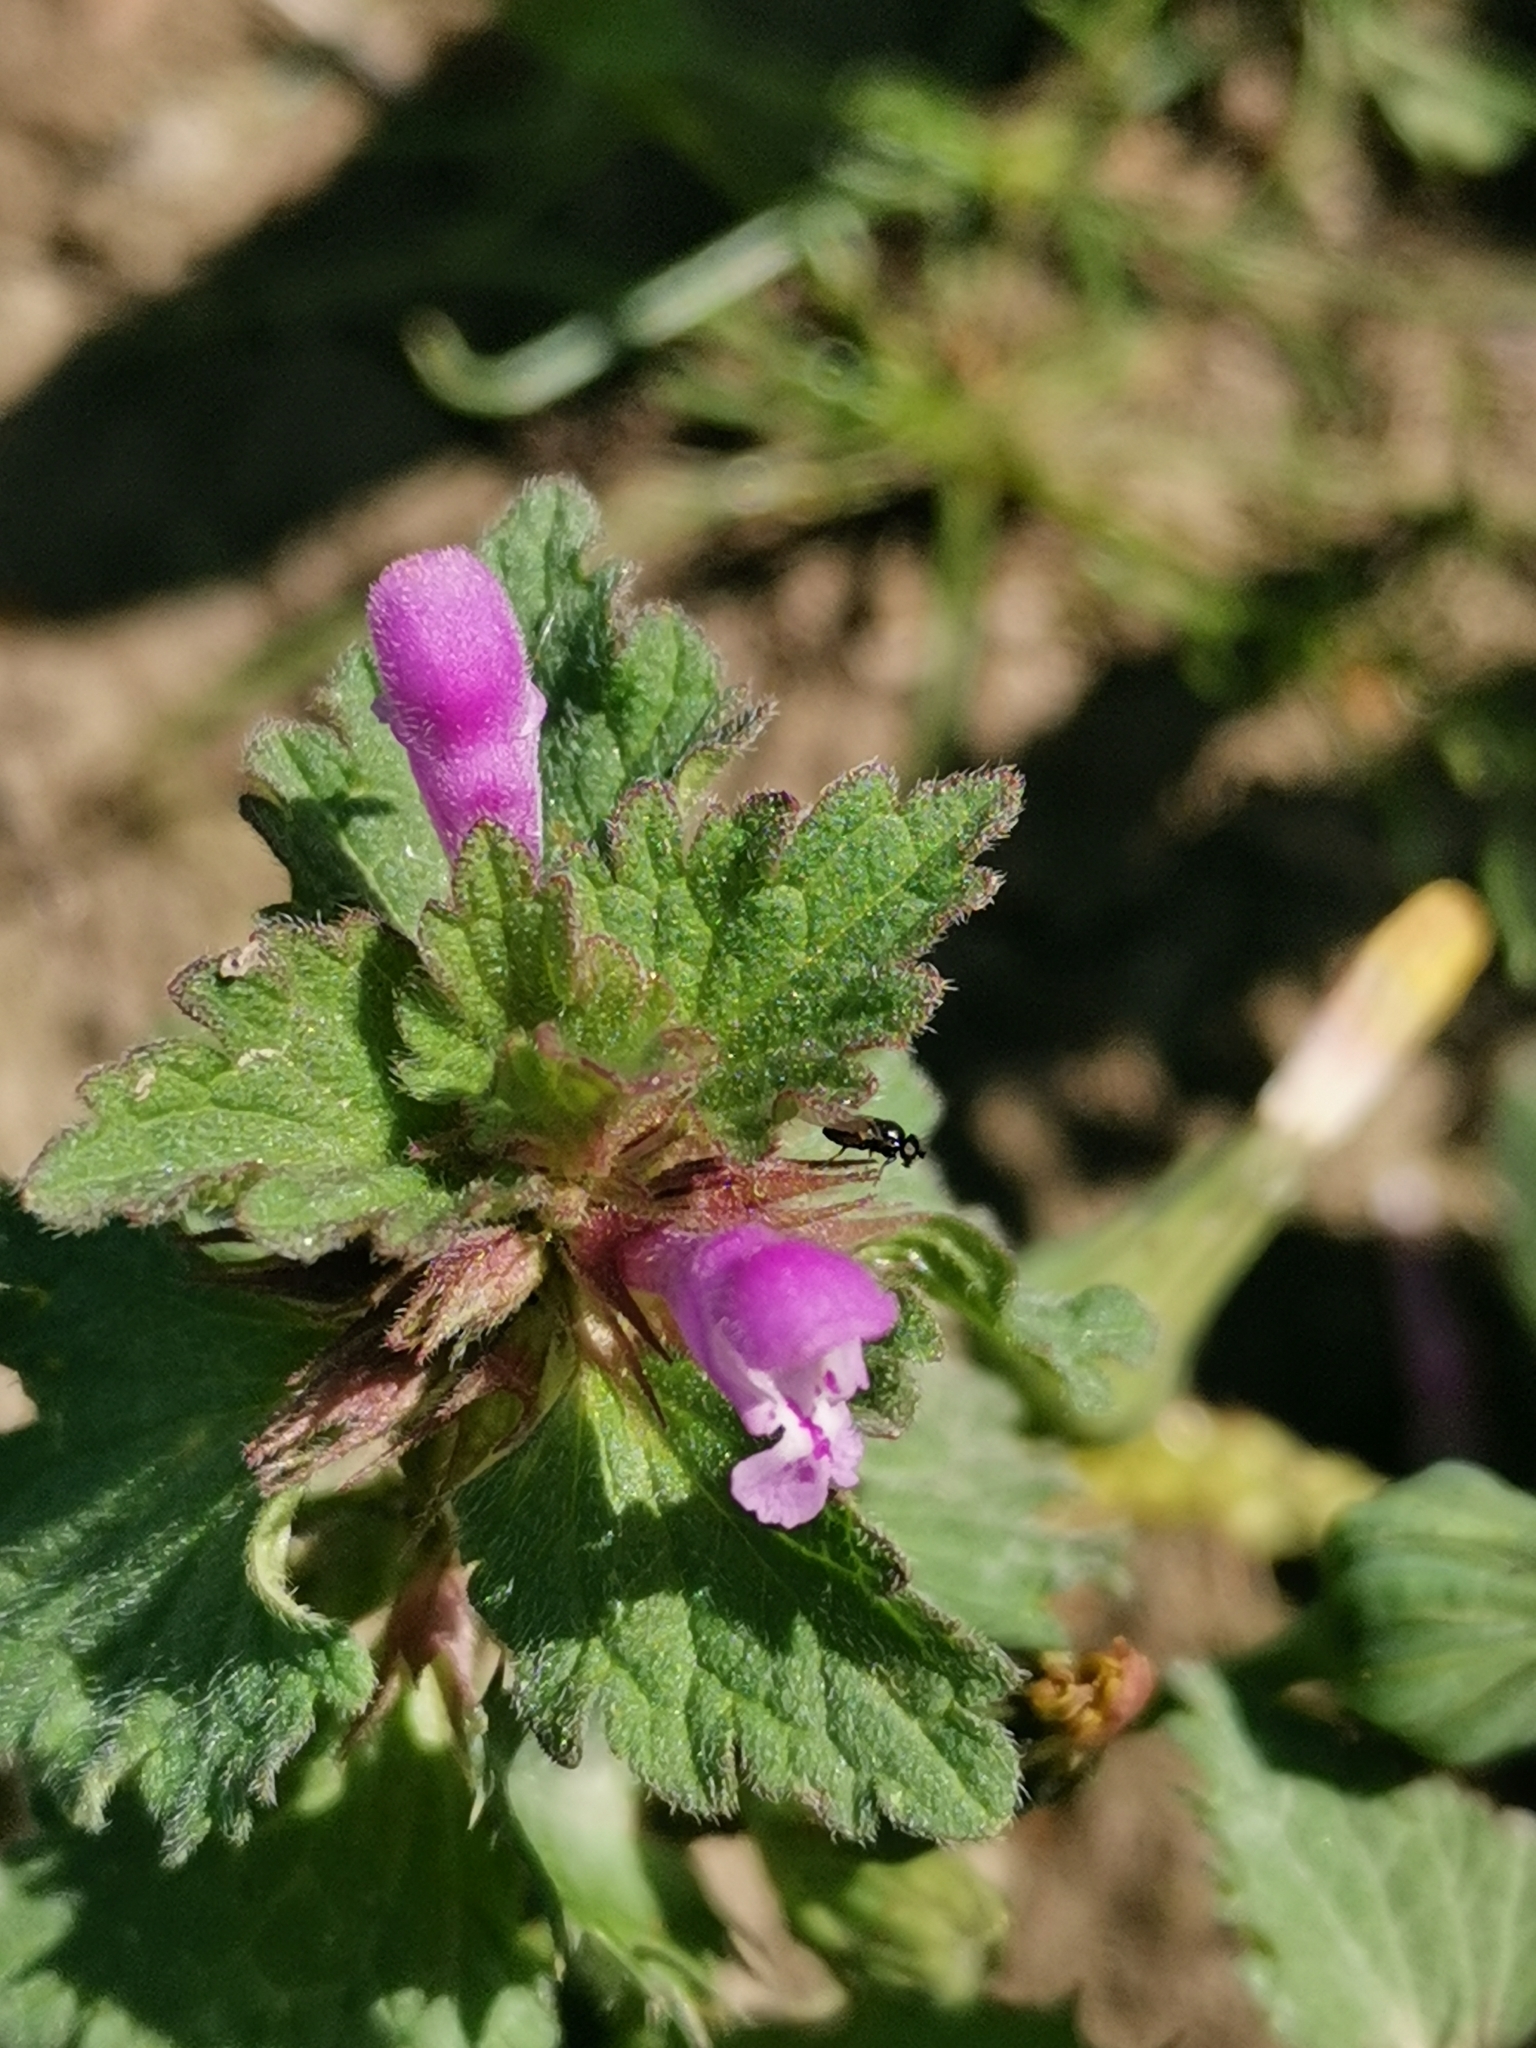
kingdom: Plantae
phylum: Tracheophyta
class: Magnoliopsida
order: Lamiales
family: Lamiaceae
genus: Lamium
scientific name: Lamium purpureum
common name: Red dead-nettle
